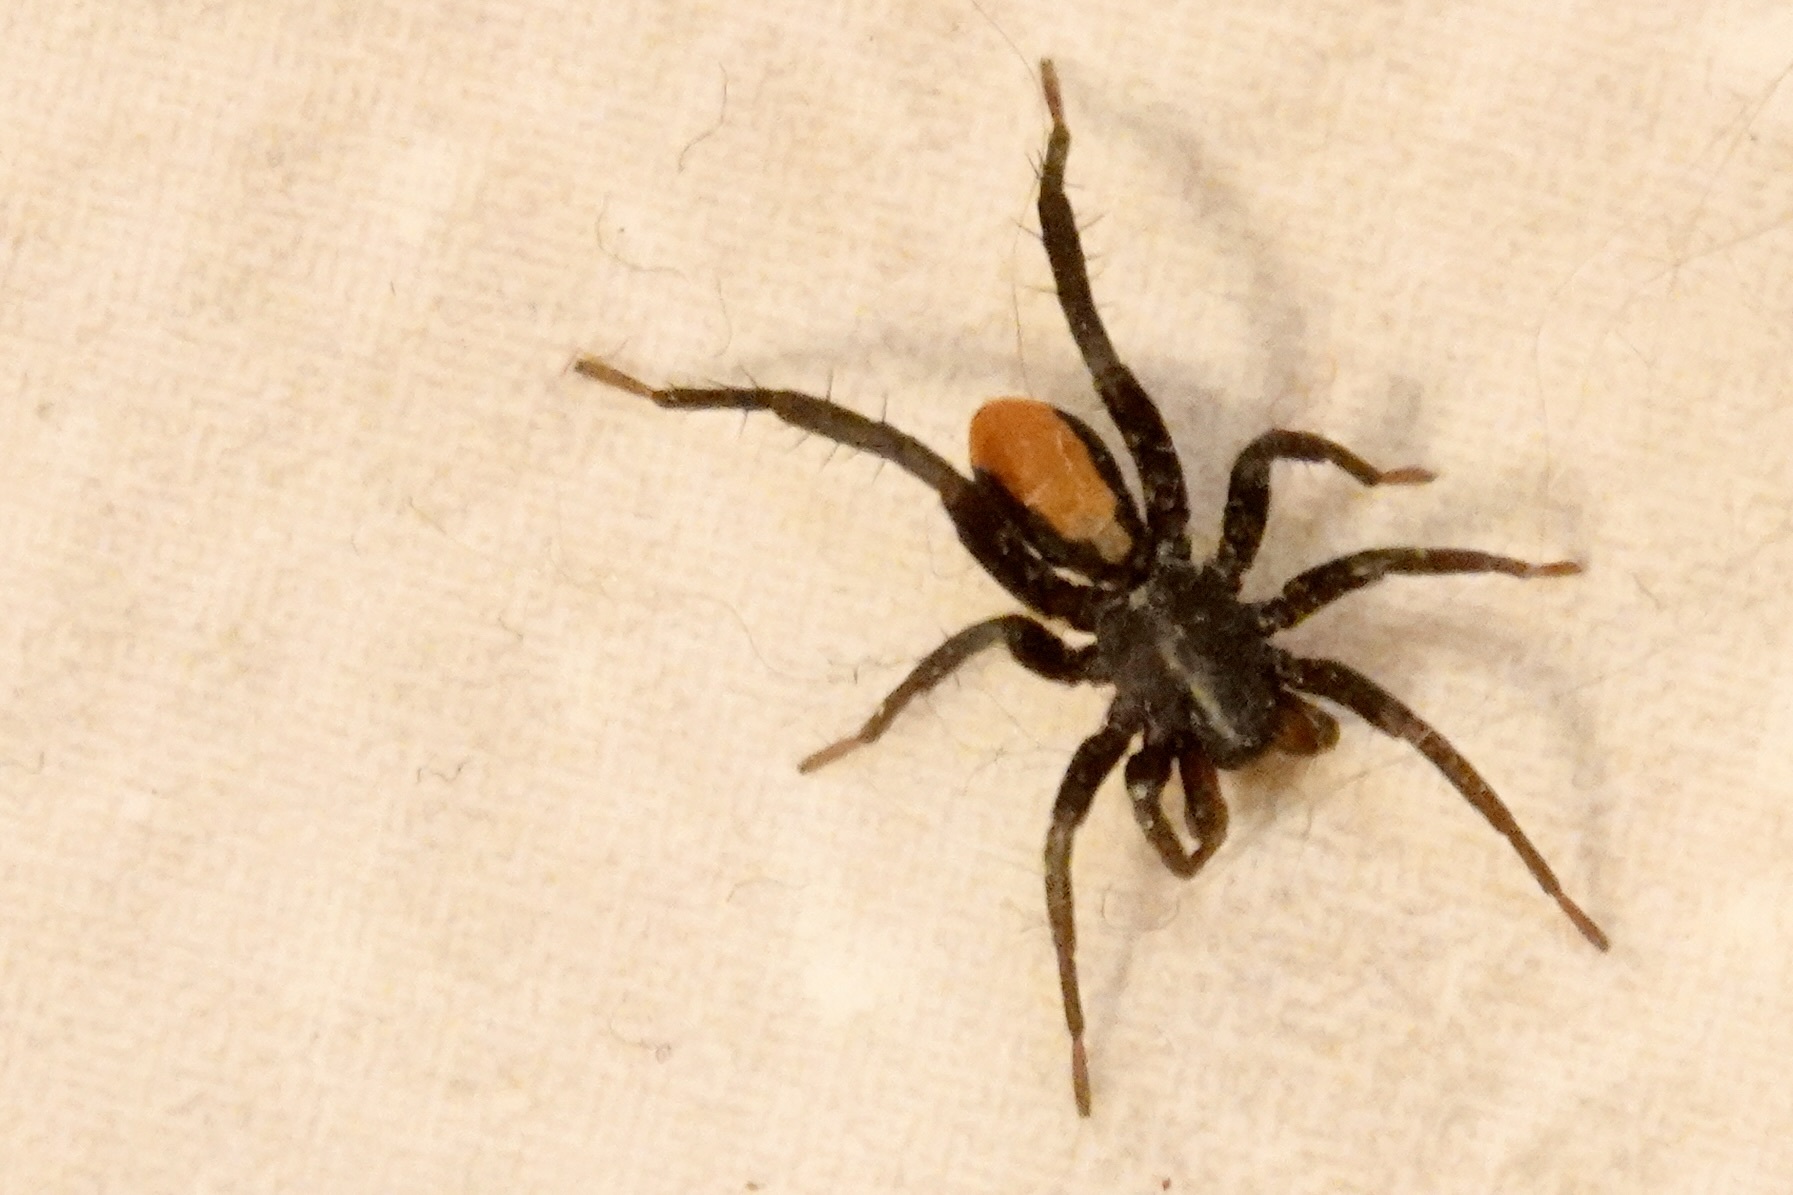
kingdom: Animalia
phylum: Arthropoda
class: Arachnida
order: Araneae
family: Corinnidae
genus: Castianeira
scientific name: Castianeira descripta
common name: Red-spotted ant-mimic sac spider
